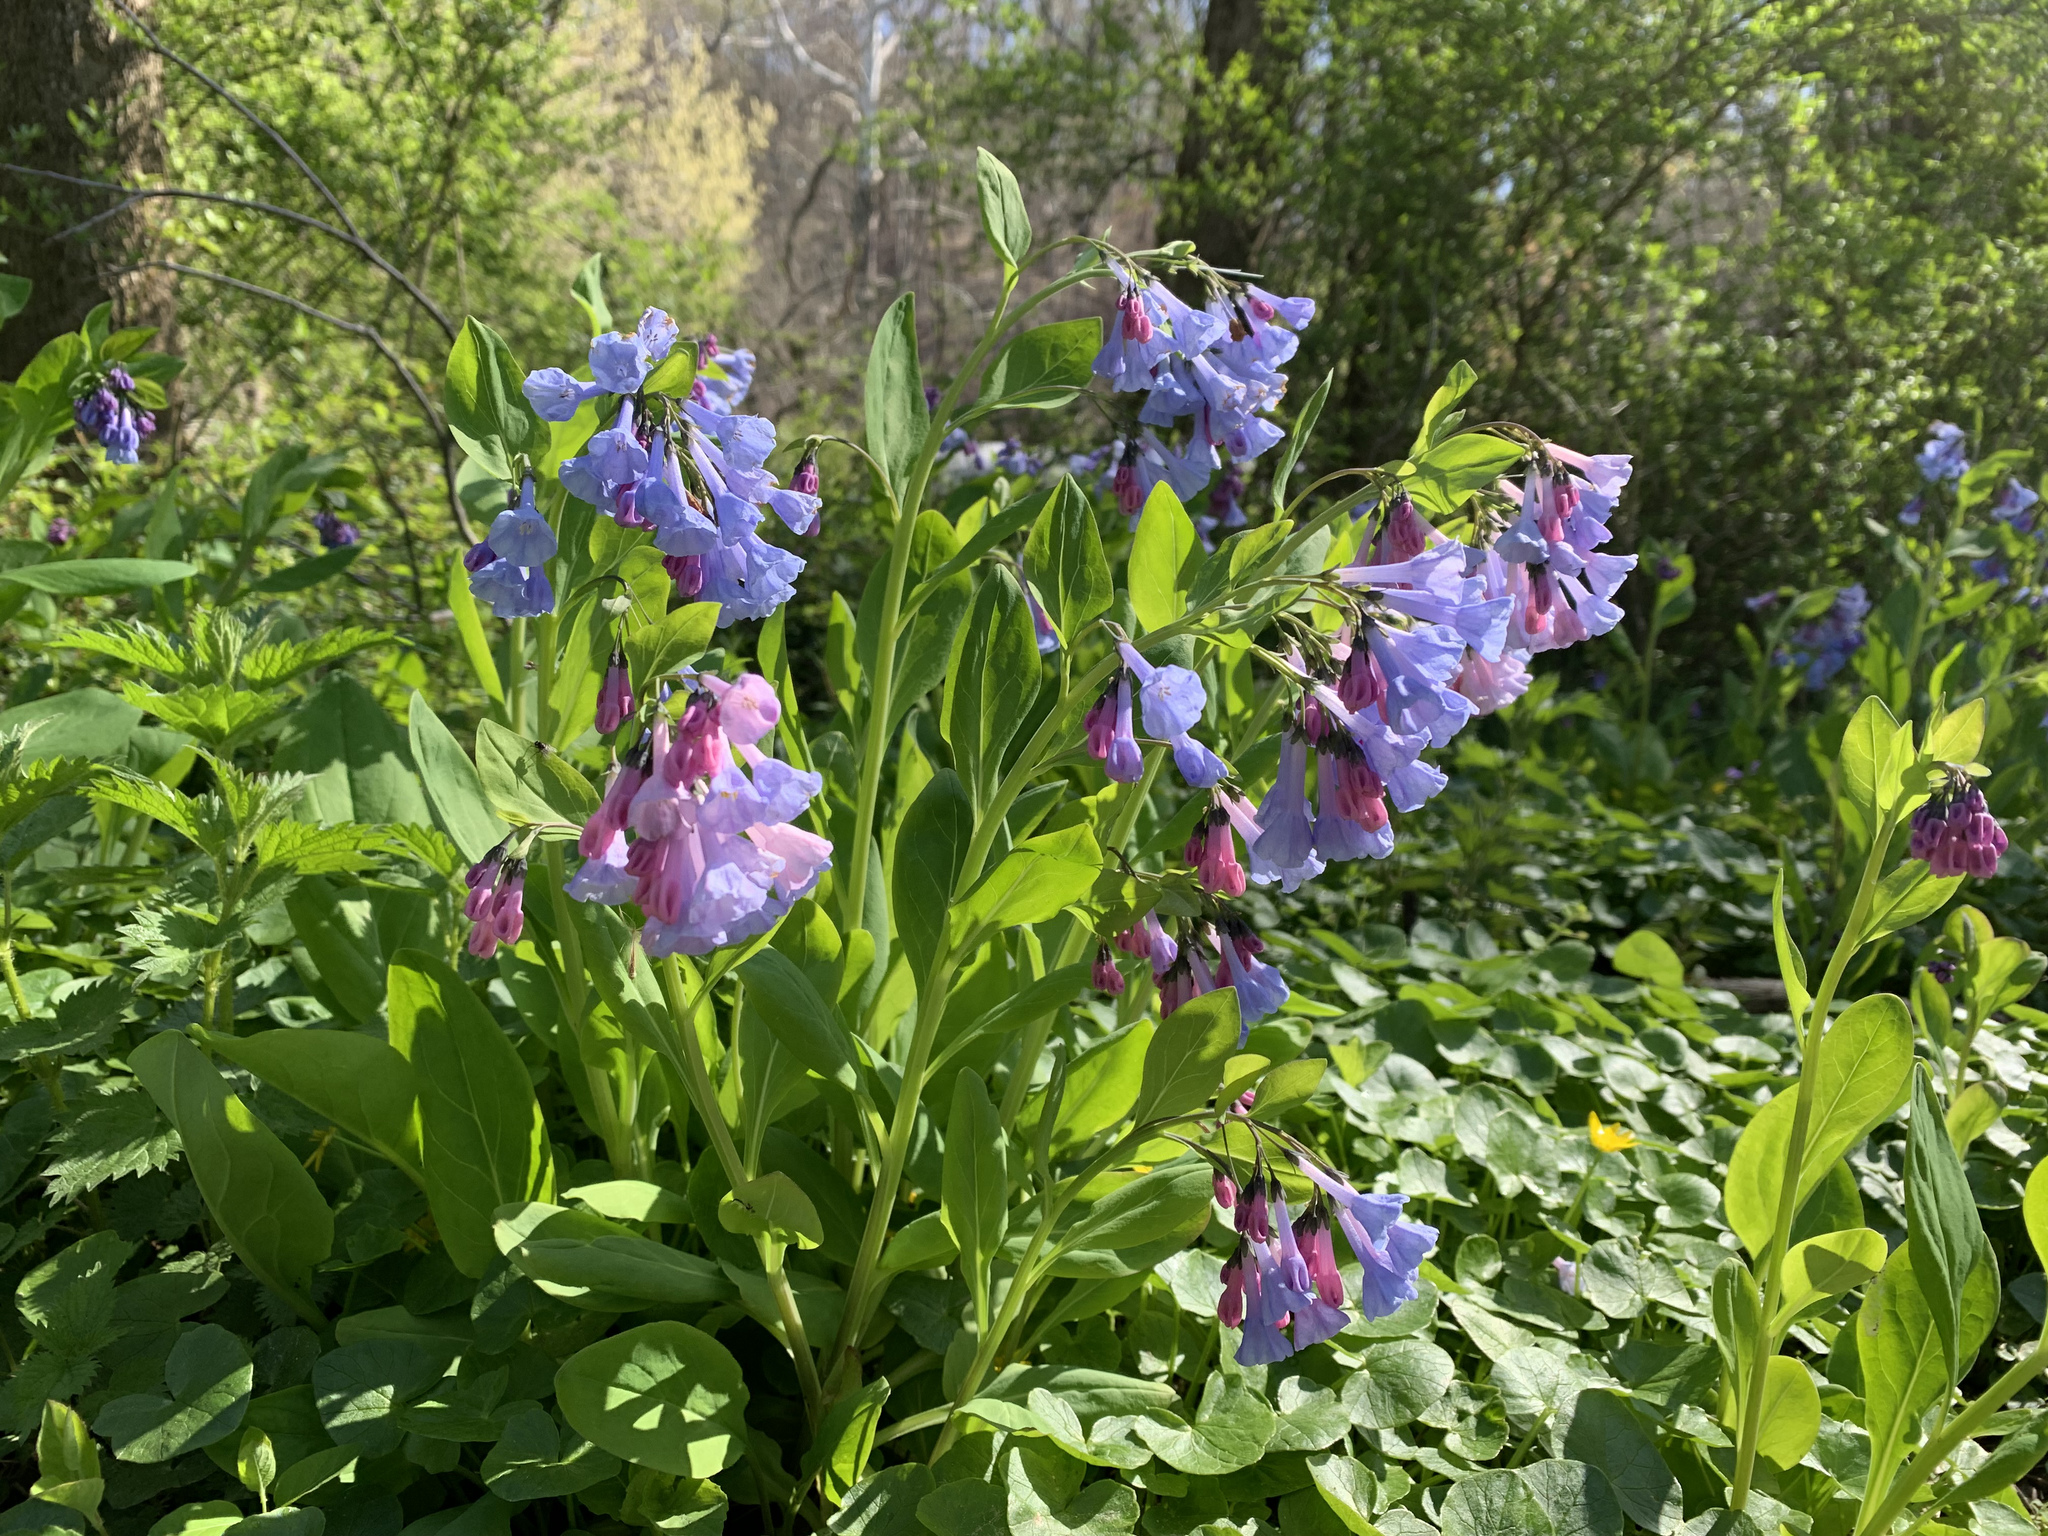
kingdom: Plantae
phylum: Tracheophyta
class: Magnoliopsida
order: Boraginales
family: Boraginaceae
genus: Mertensia
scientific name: Mertensia virginica
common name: Virginia bluebells
